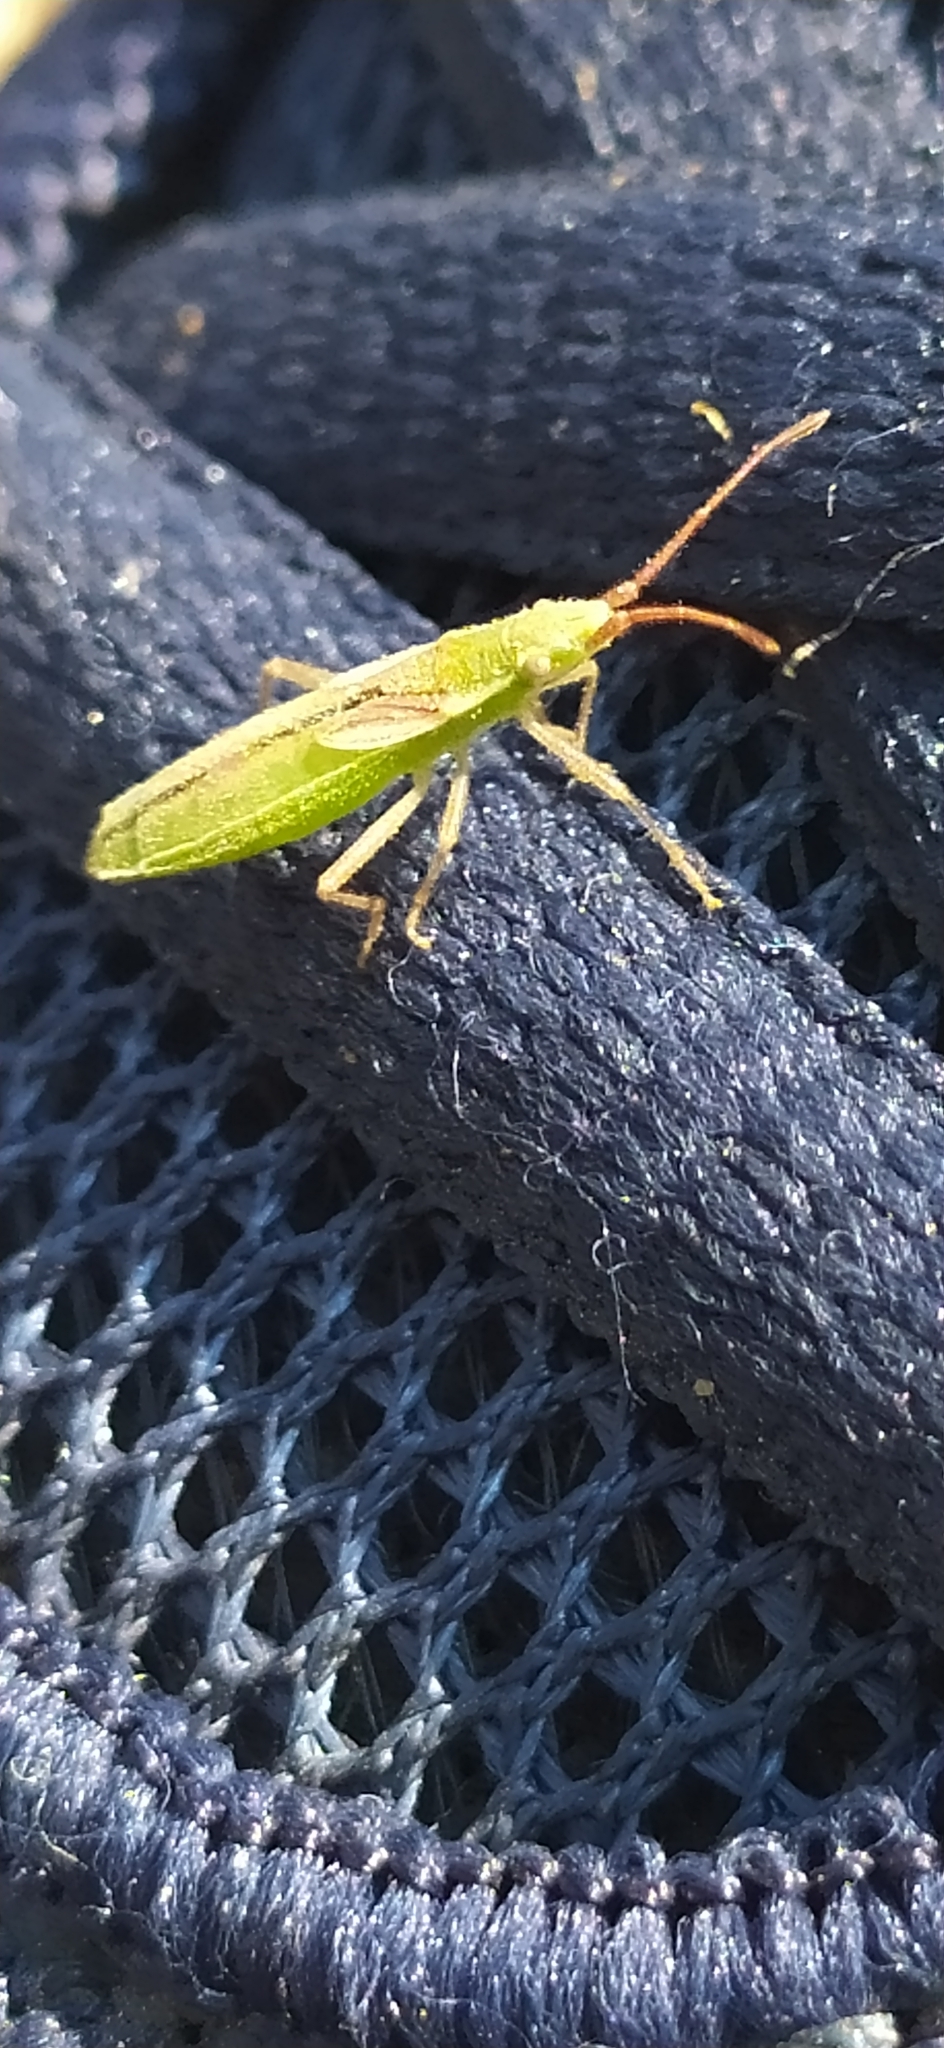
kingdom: Animalia
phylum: Arthropoda
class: Insecta
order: Hemiptera
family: Rhopalidae
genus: Myrmus
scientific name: Myrmus miriformis
